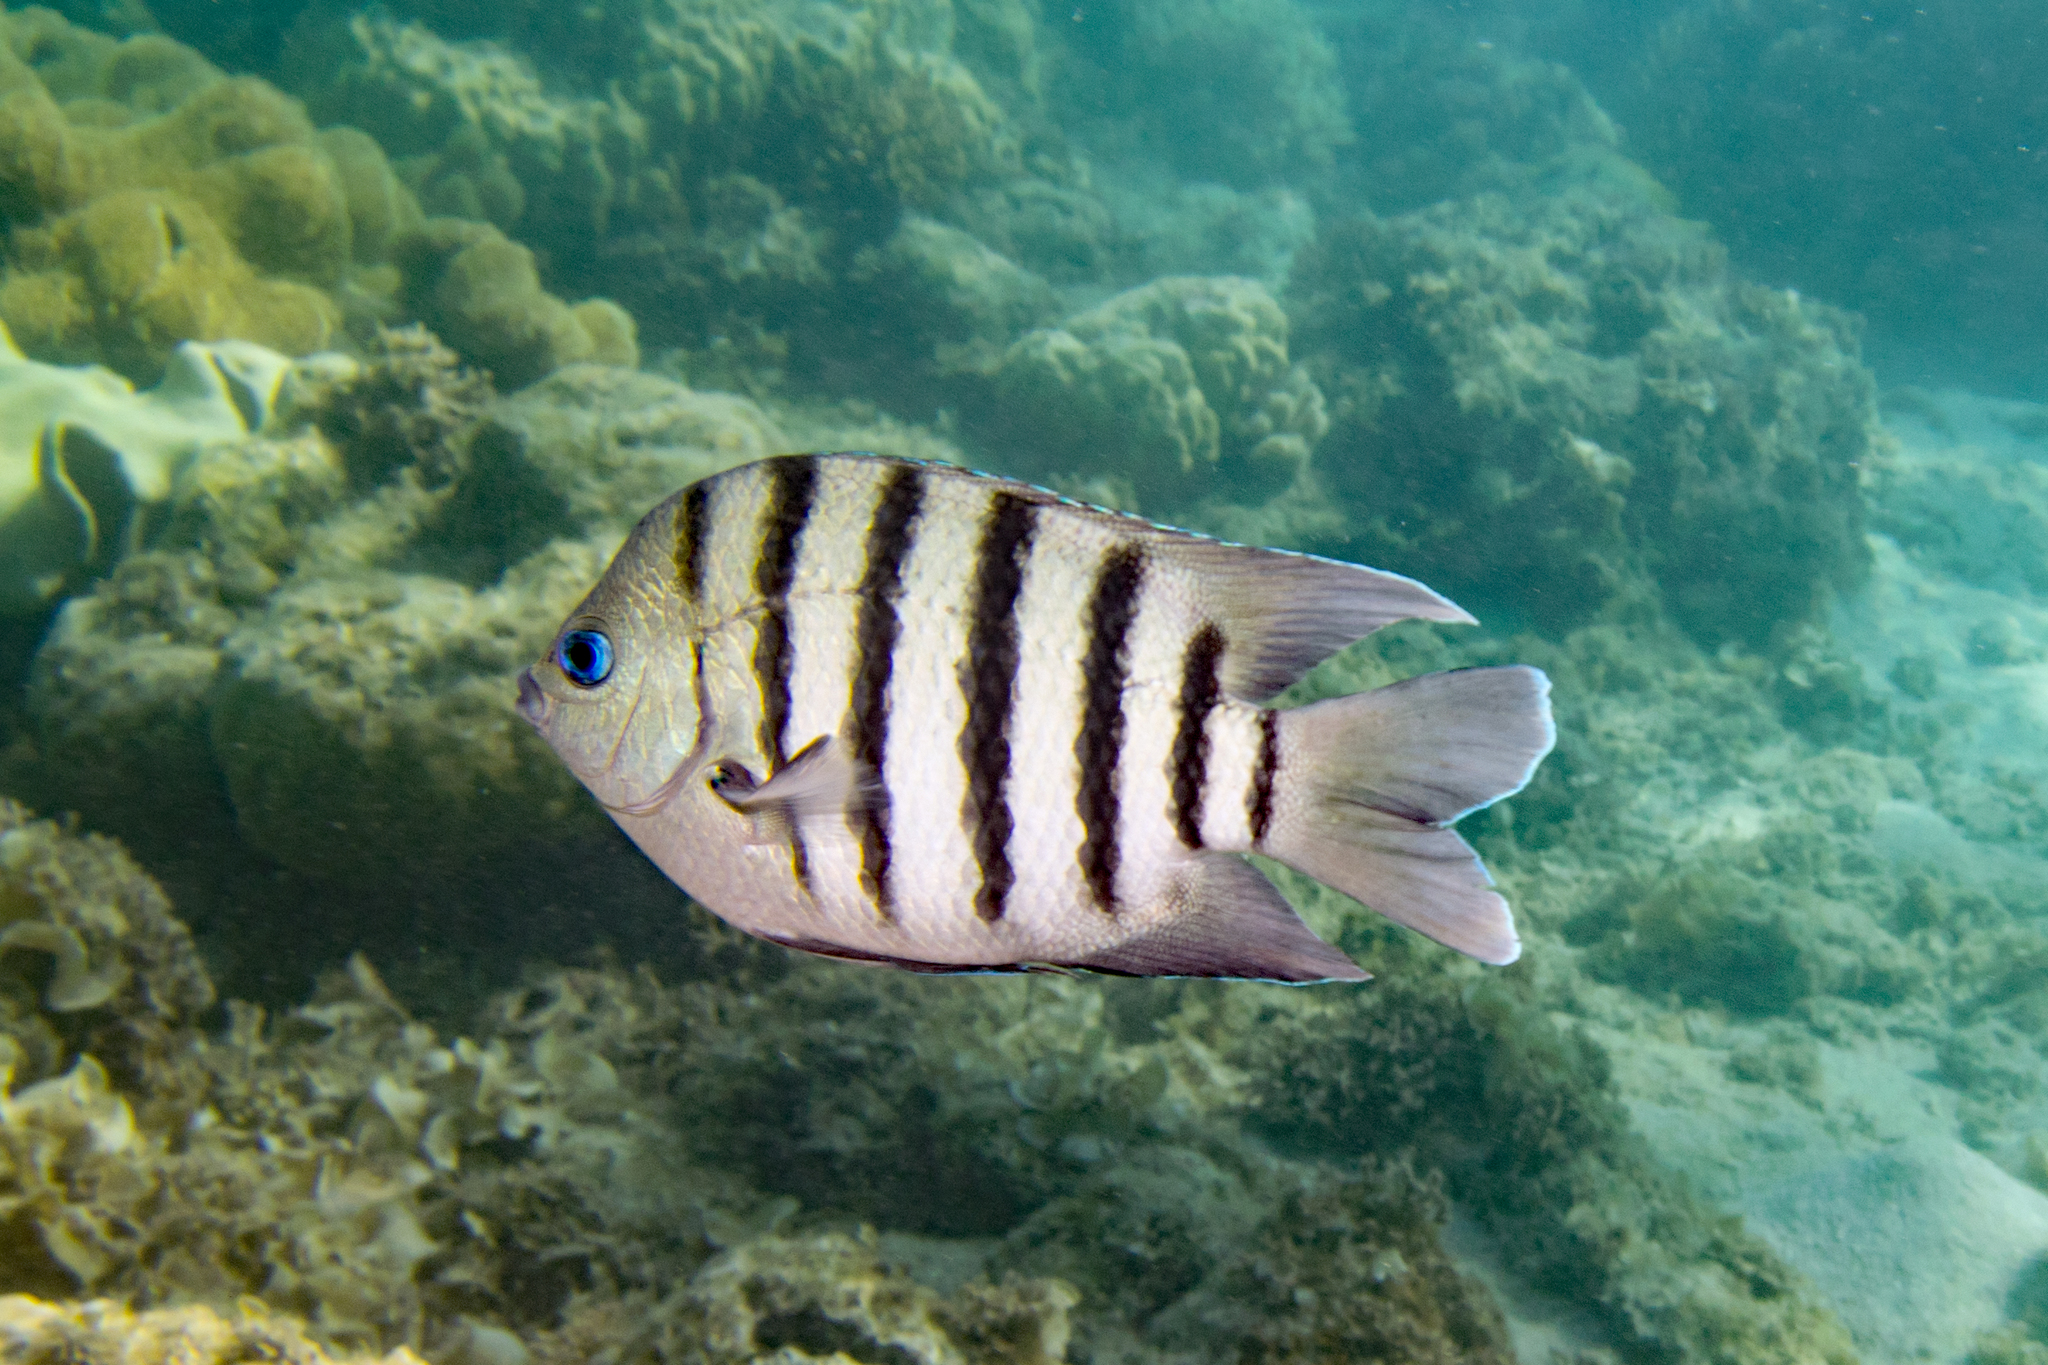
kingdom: Animalia
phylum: Chordata
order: Perciformes
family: Pomacentridae
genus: Abudefduf
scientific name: Abudefduf bengalensis
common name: Bengal sergeant
